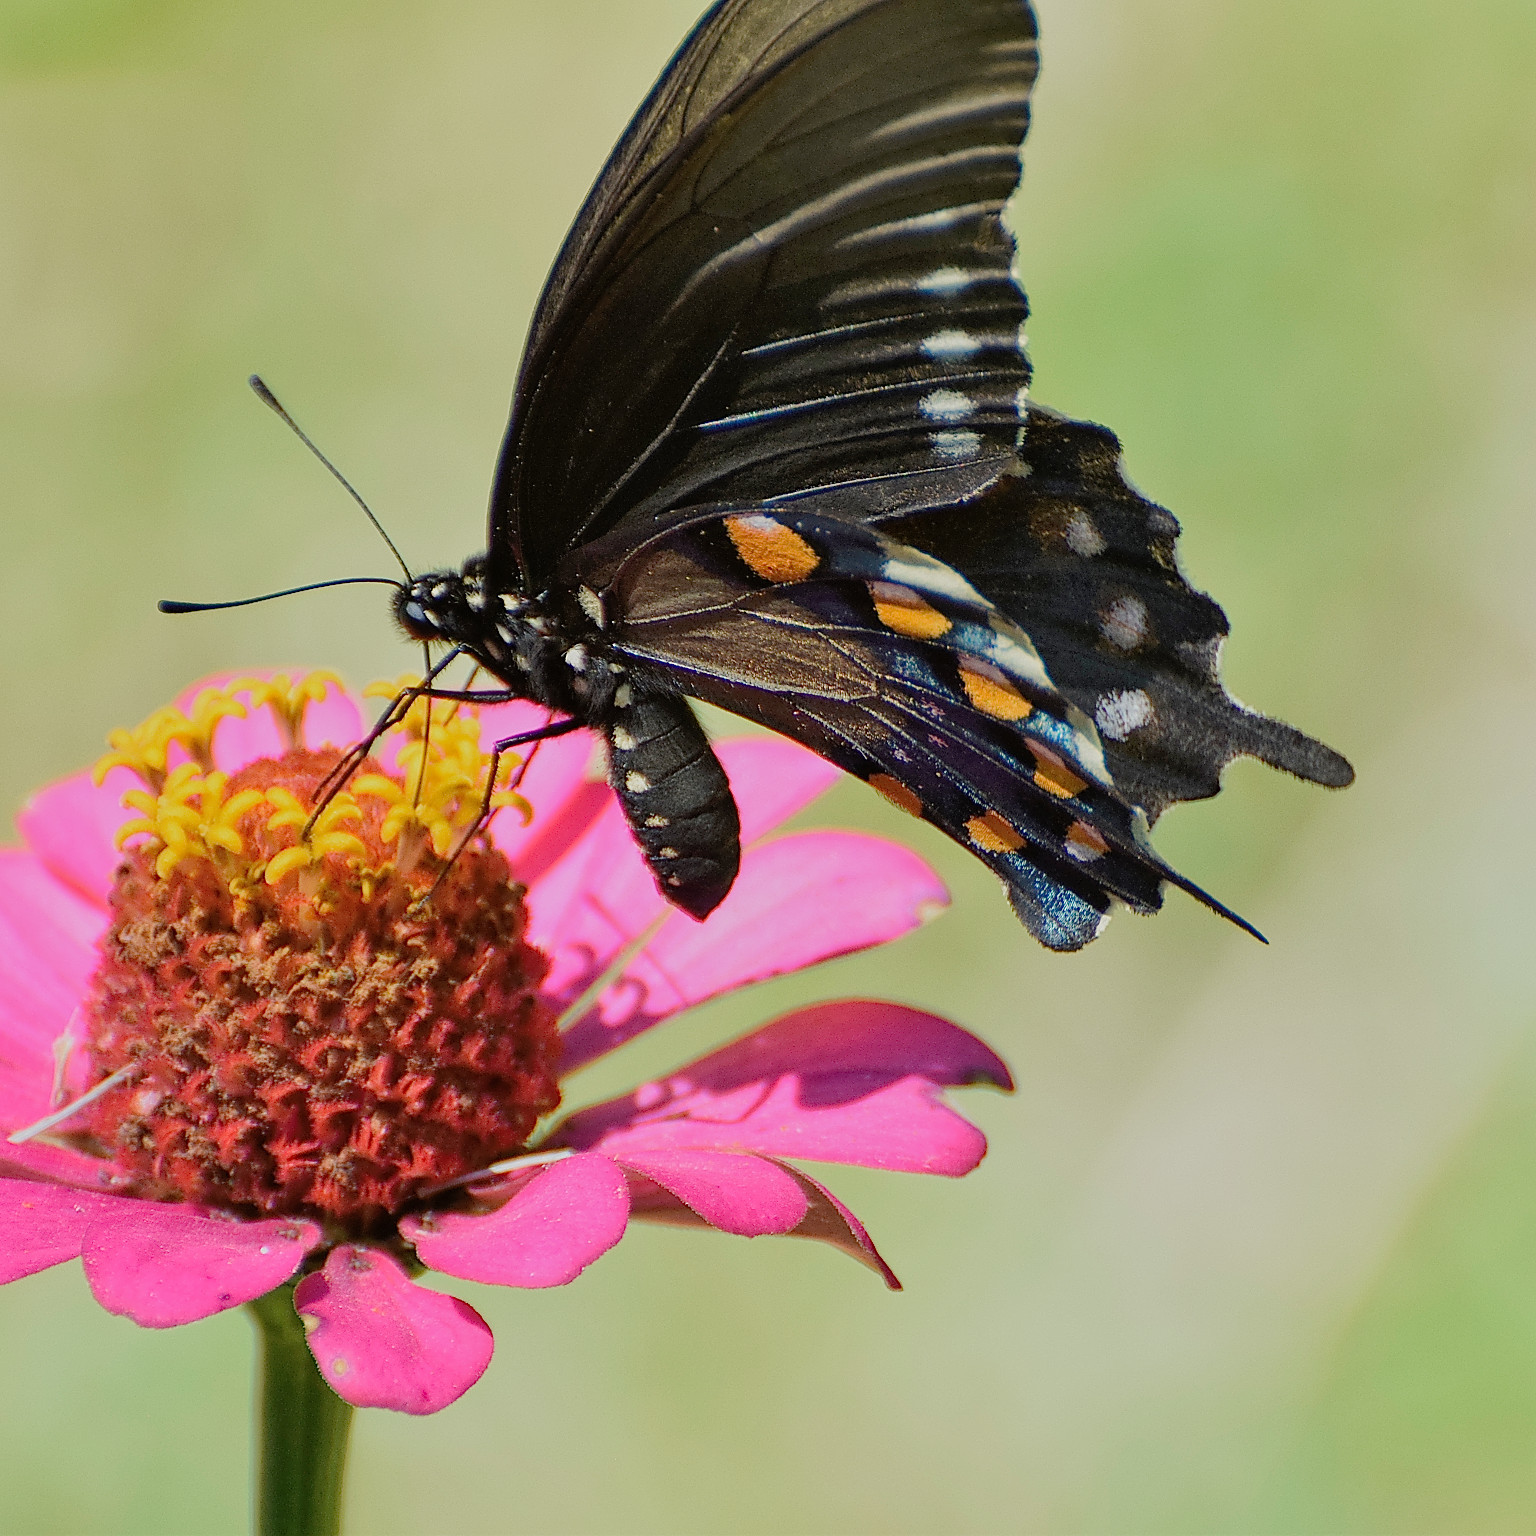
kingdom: Animalia
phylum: Arthropoda
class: Insecta
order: Lepidoptera
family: Papilionidae
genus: Battus
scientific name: Battus philenor
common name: Pipevine swallowtail
